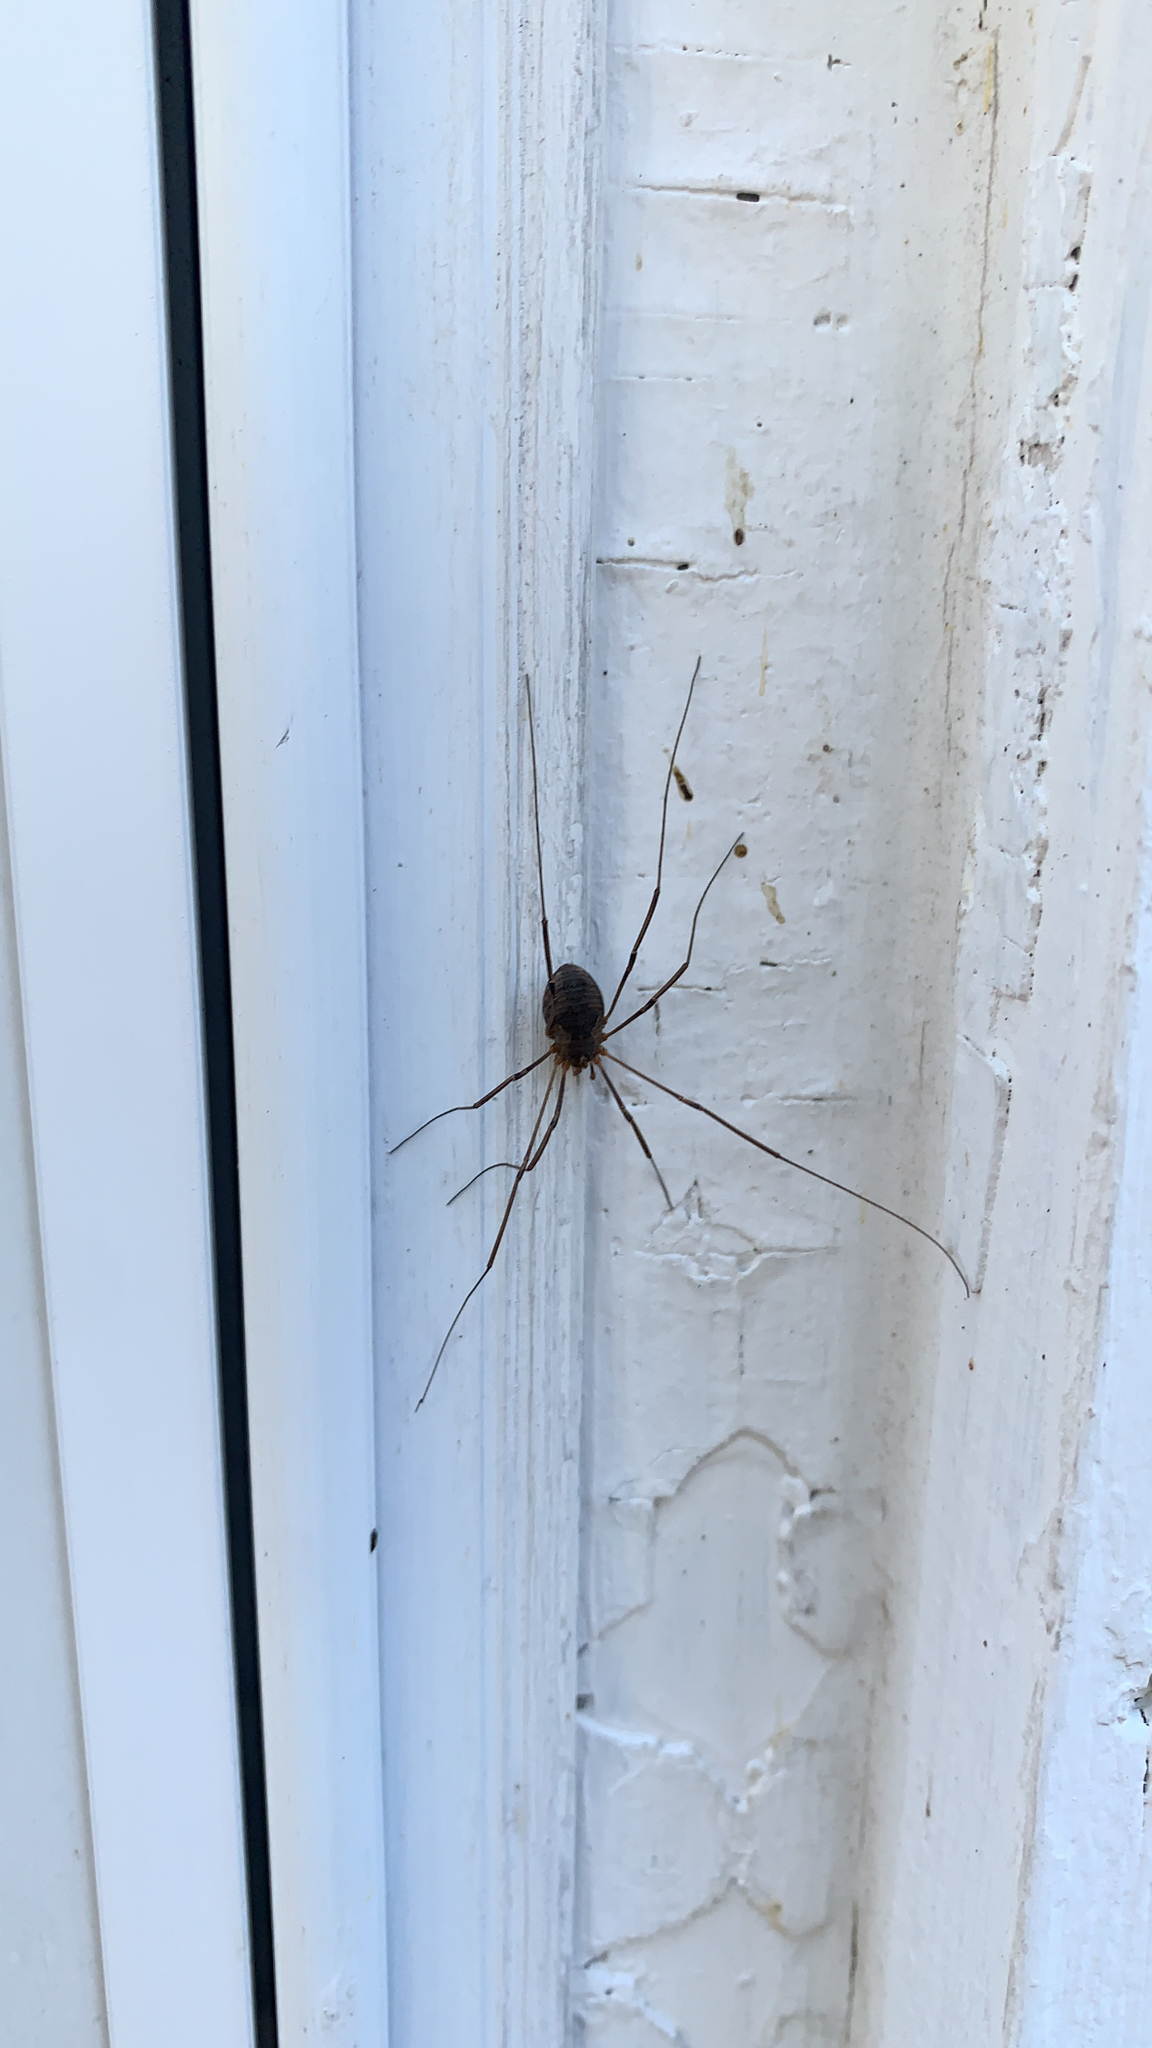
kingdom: Animalia
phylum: Arthropoda
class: Arachnida
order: Opiliones
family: Phalangiidae
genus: Phalangium
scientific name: Phalangium opilio
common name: Daddy longleg
